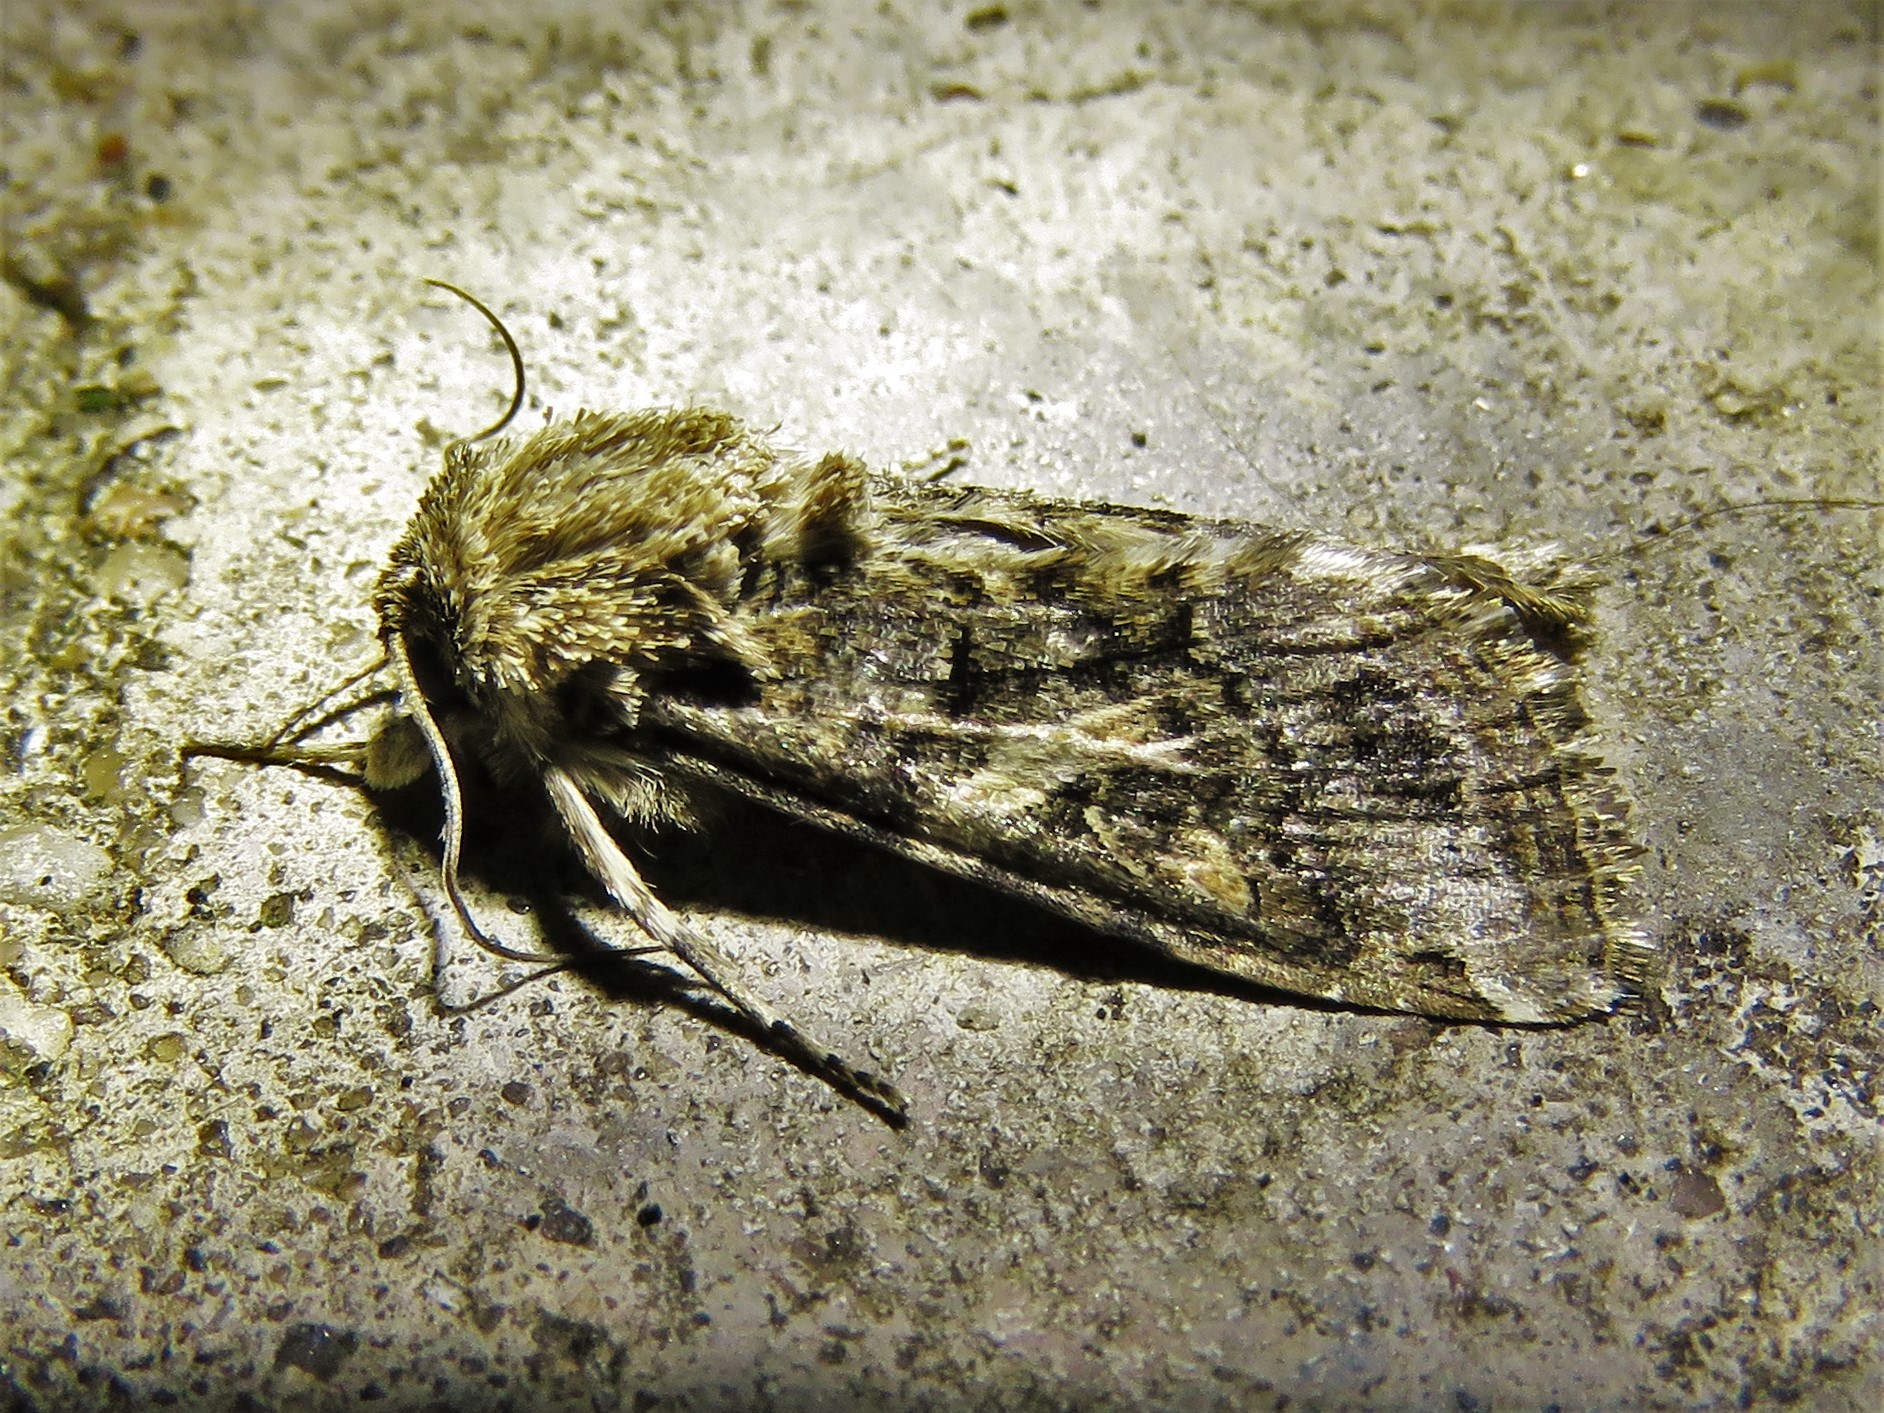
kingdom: Animalia
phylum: Arthropoda
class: Insecta
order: Lepidoptera
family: Noctuidae
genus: Spodoptera
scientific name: Spodoptera ornithogalli
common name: Yellow-striped armyworm
